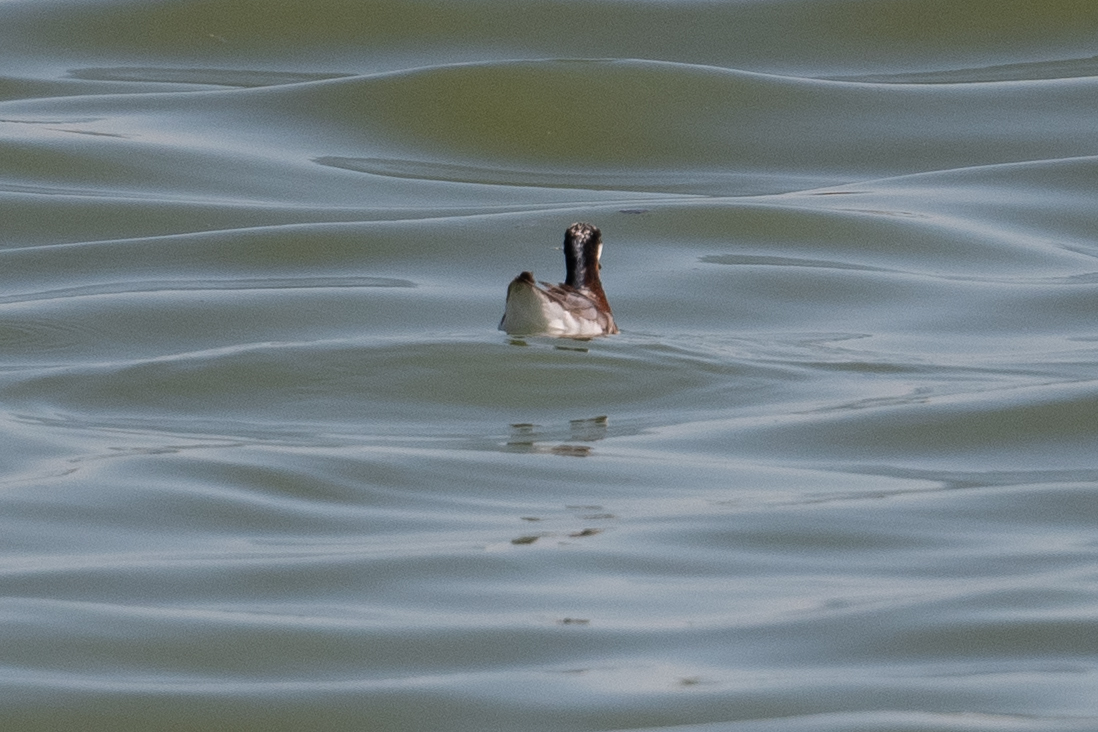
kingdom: Animalia
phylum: Chordata
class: Aves
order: Charadriiformes
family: Scolopacidae
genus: Phalaropus
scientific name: Phalaropus tricolor
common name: Wilson's phalarope
